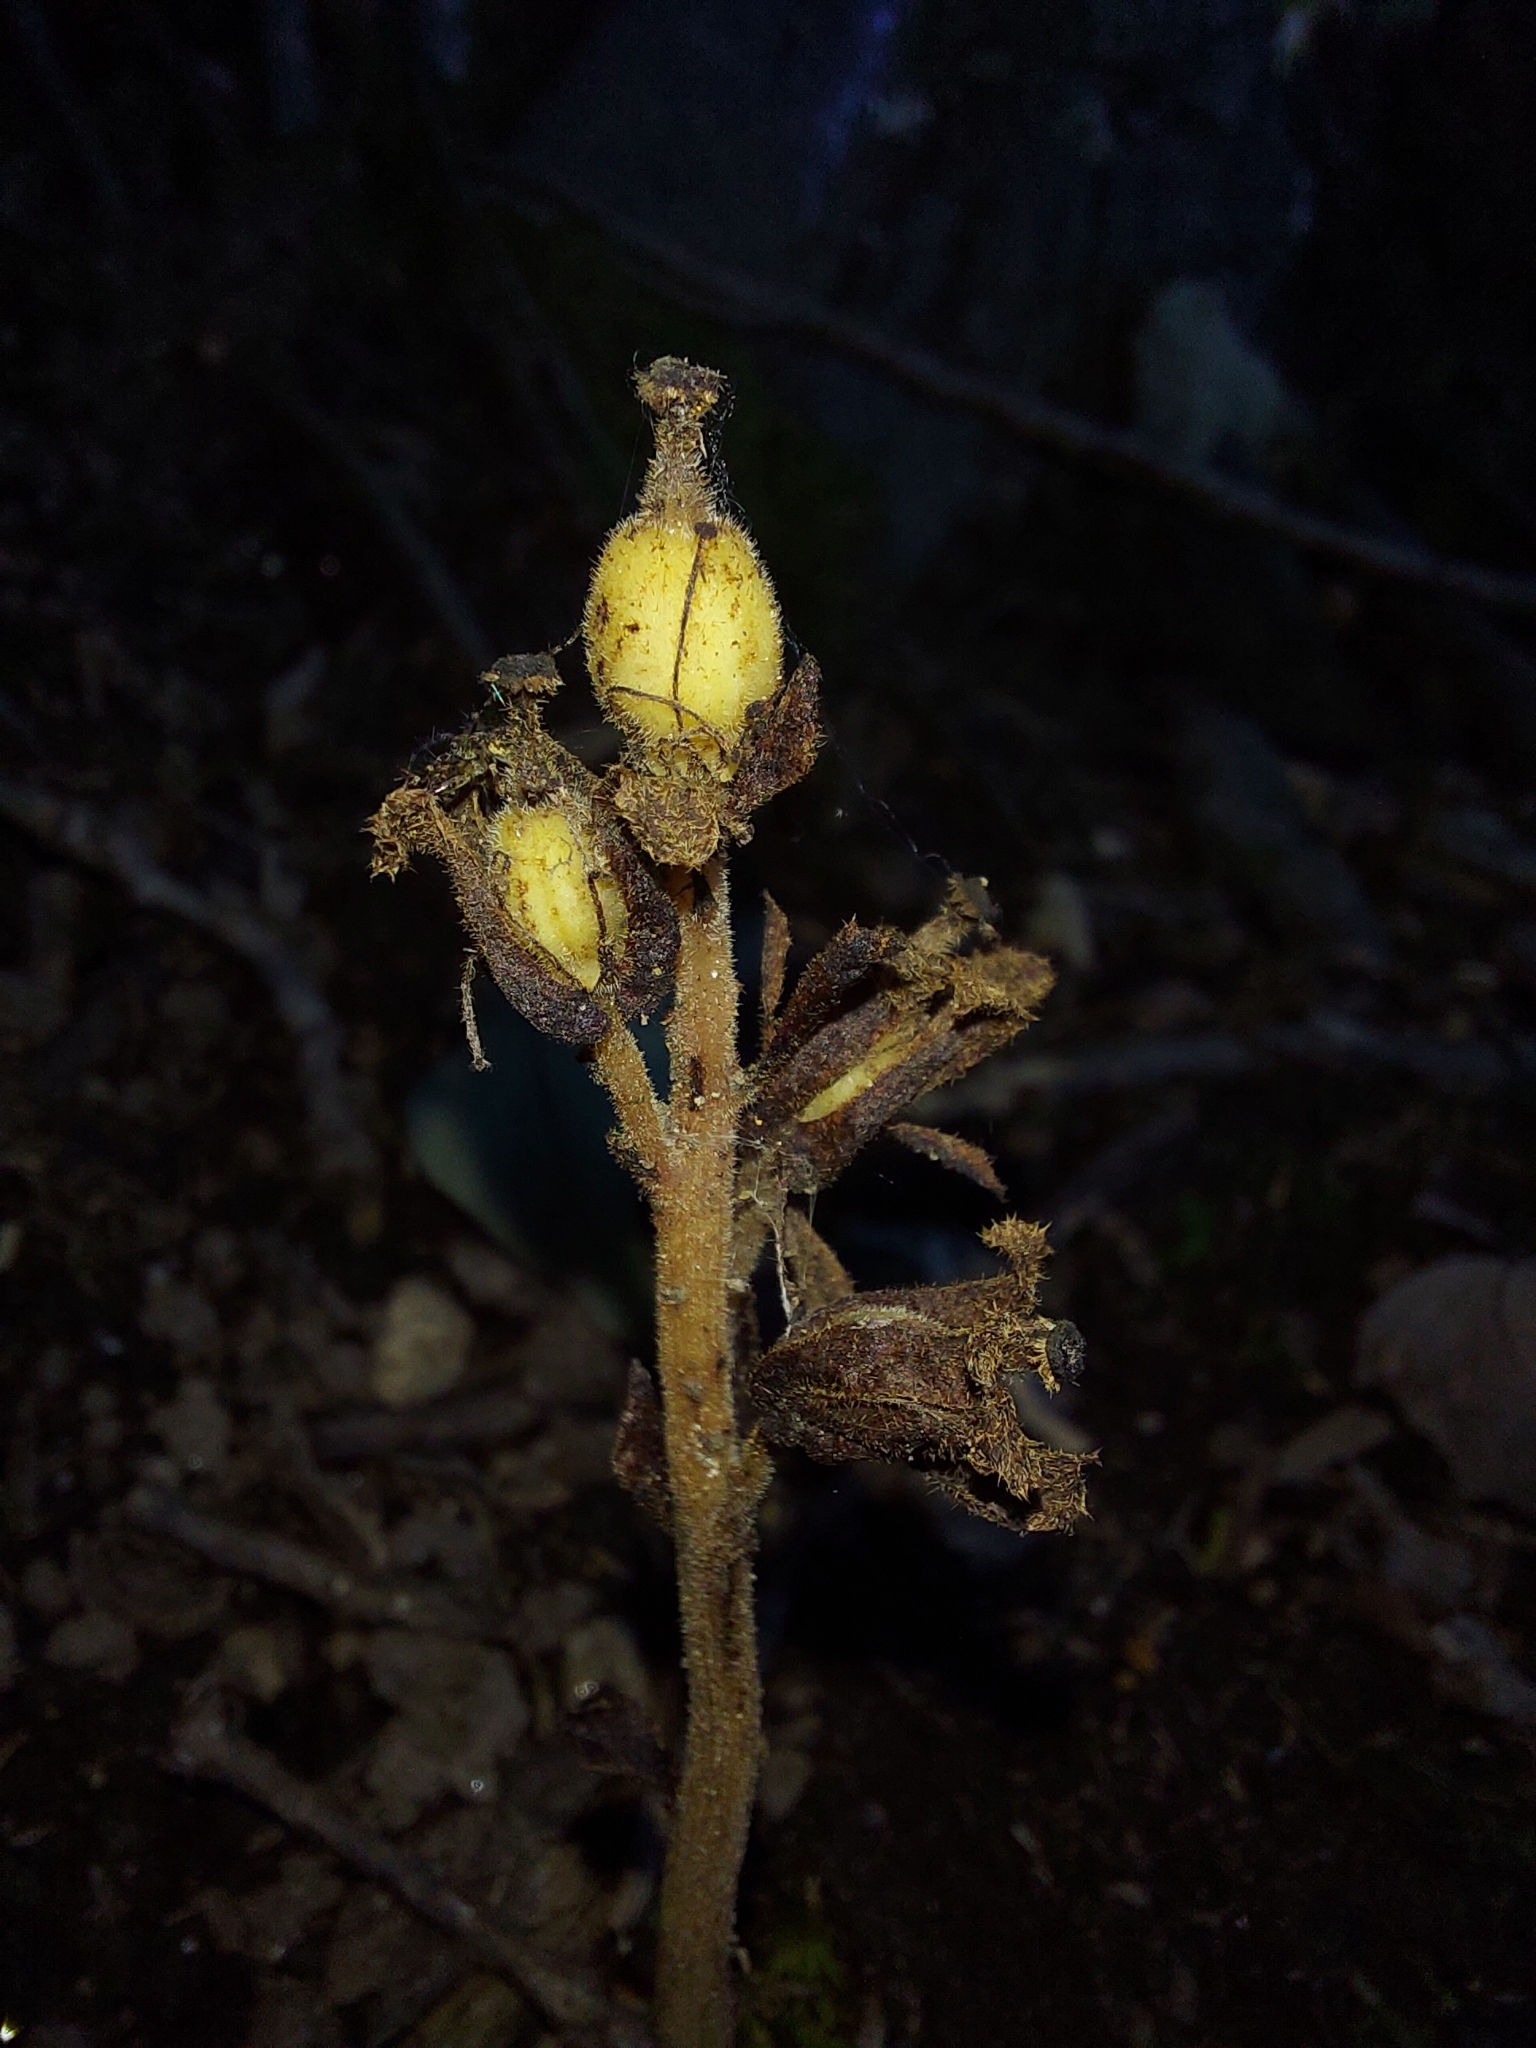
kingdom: Plantae
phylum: Tracheophyta
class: Magnoliopsida
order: Ericales
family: Ericaceae
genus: Hypopitys
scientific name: Hypopitys monotropa
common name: Yellow bird's-nest
